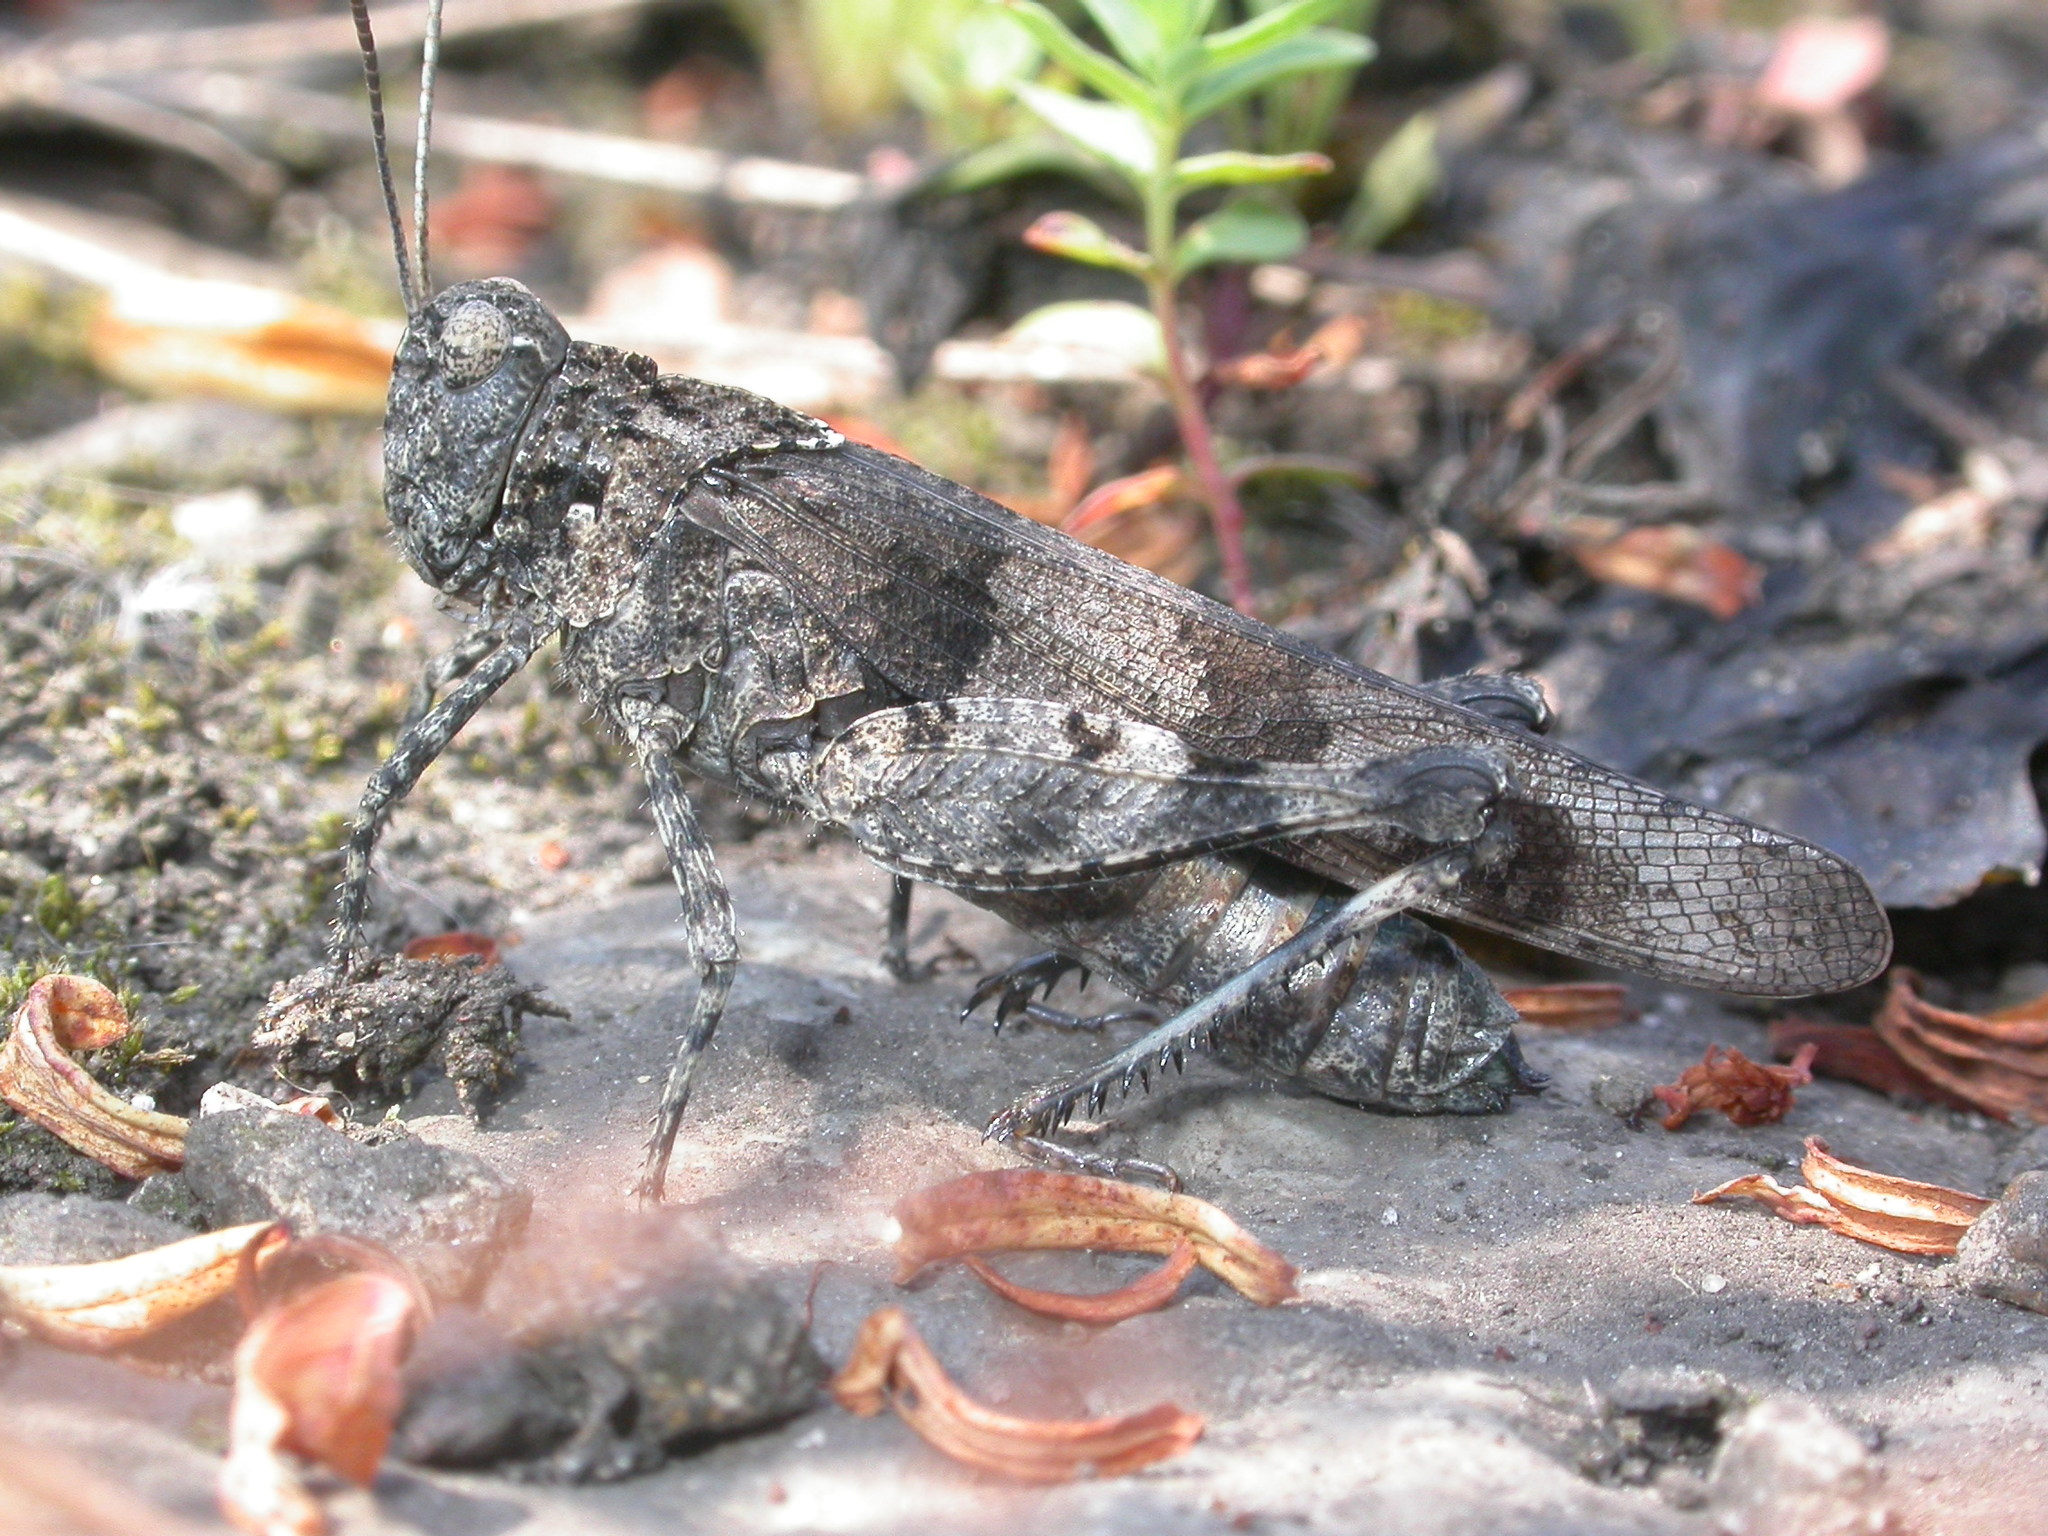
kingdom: Animalia
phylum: Arthropoda
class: Insecta
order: Orthoptera
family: Acrididae
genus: Oedipoda
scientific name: Oedipoda caerulescens
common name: Blue-winged grasshopper
